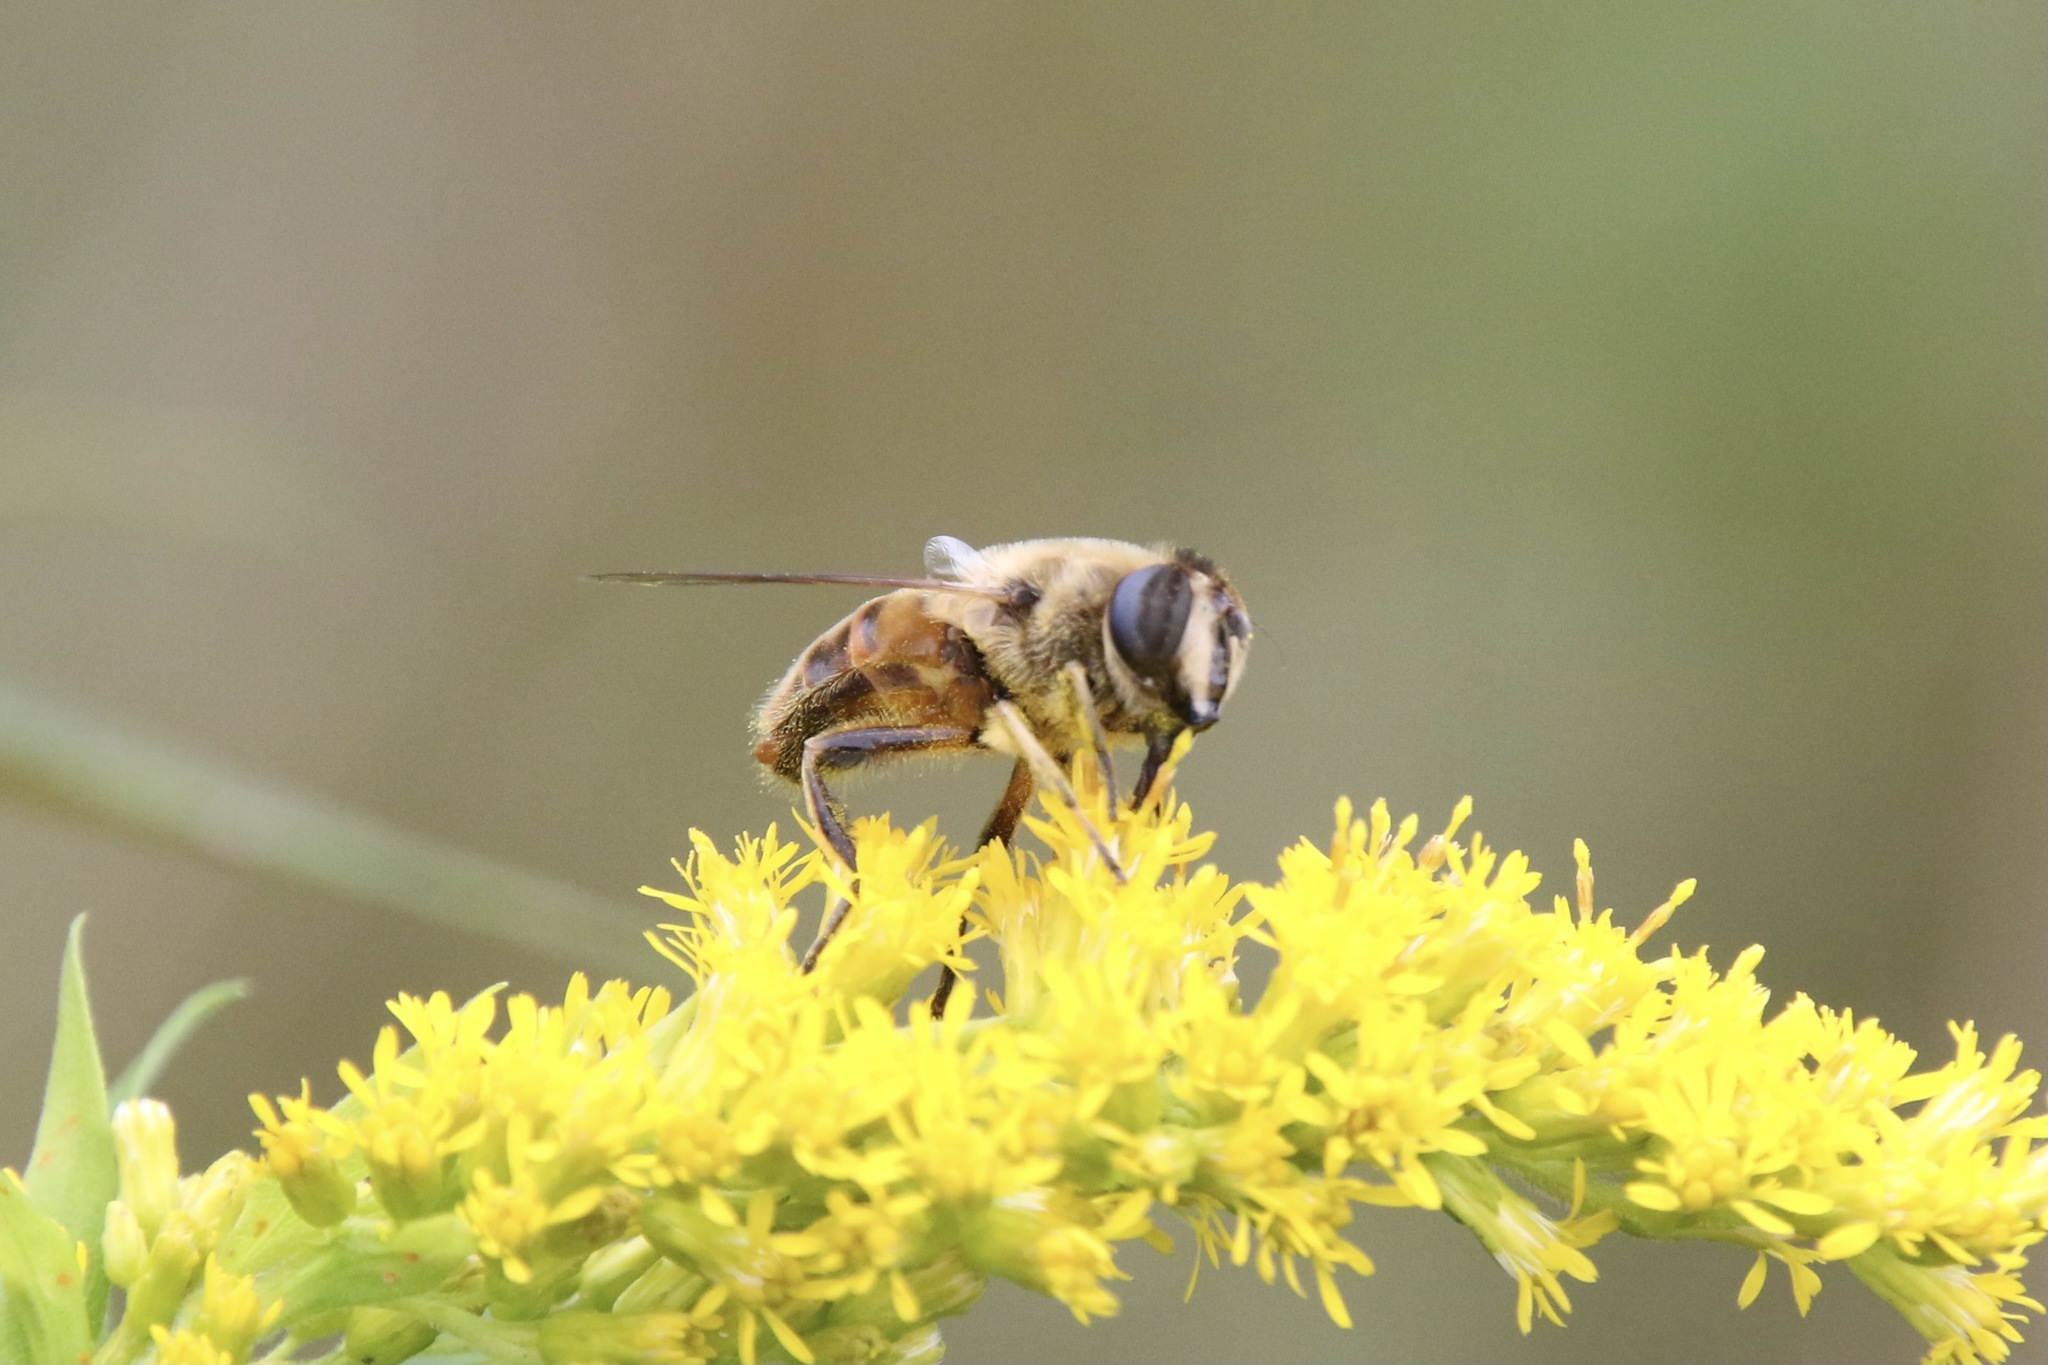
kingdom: Animalia
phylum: Arthropoda
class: Insecta
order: Diptera
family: Syrphidae
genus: Eristalis
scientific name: Eristalis tenax
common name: Drone fly
